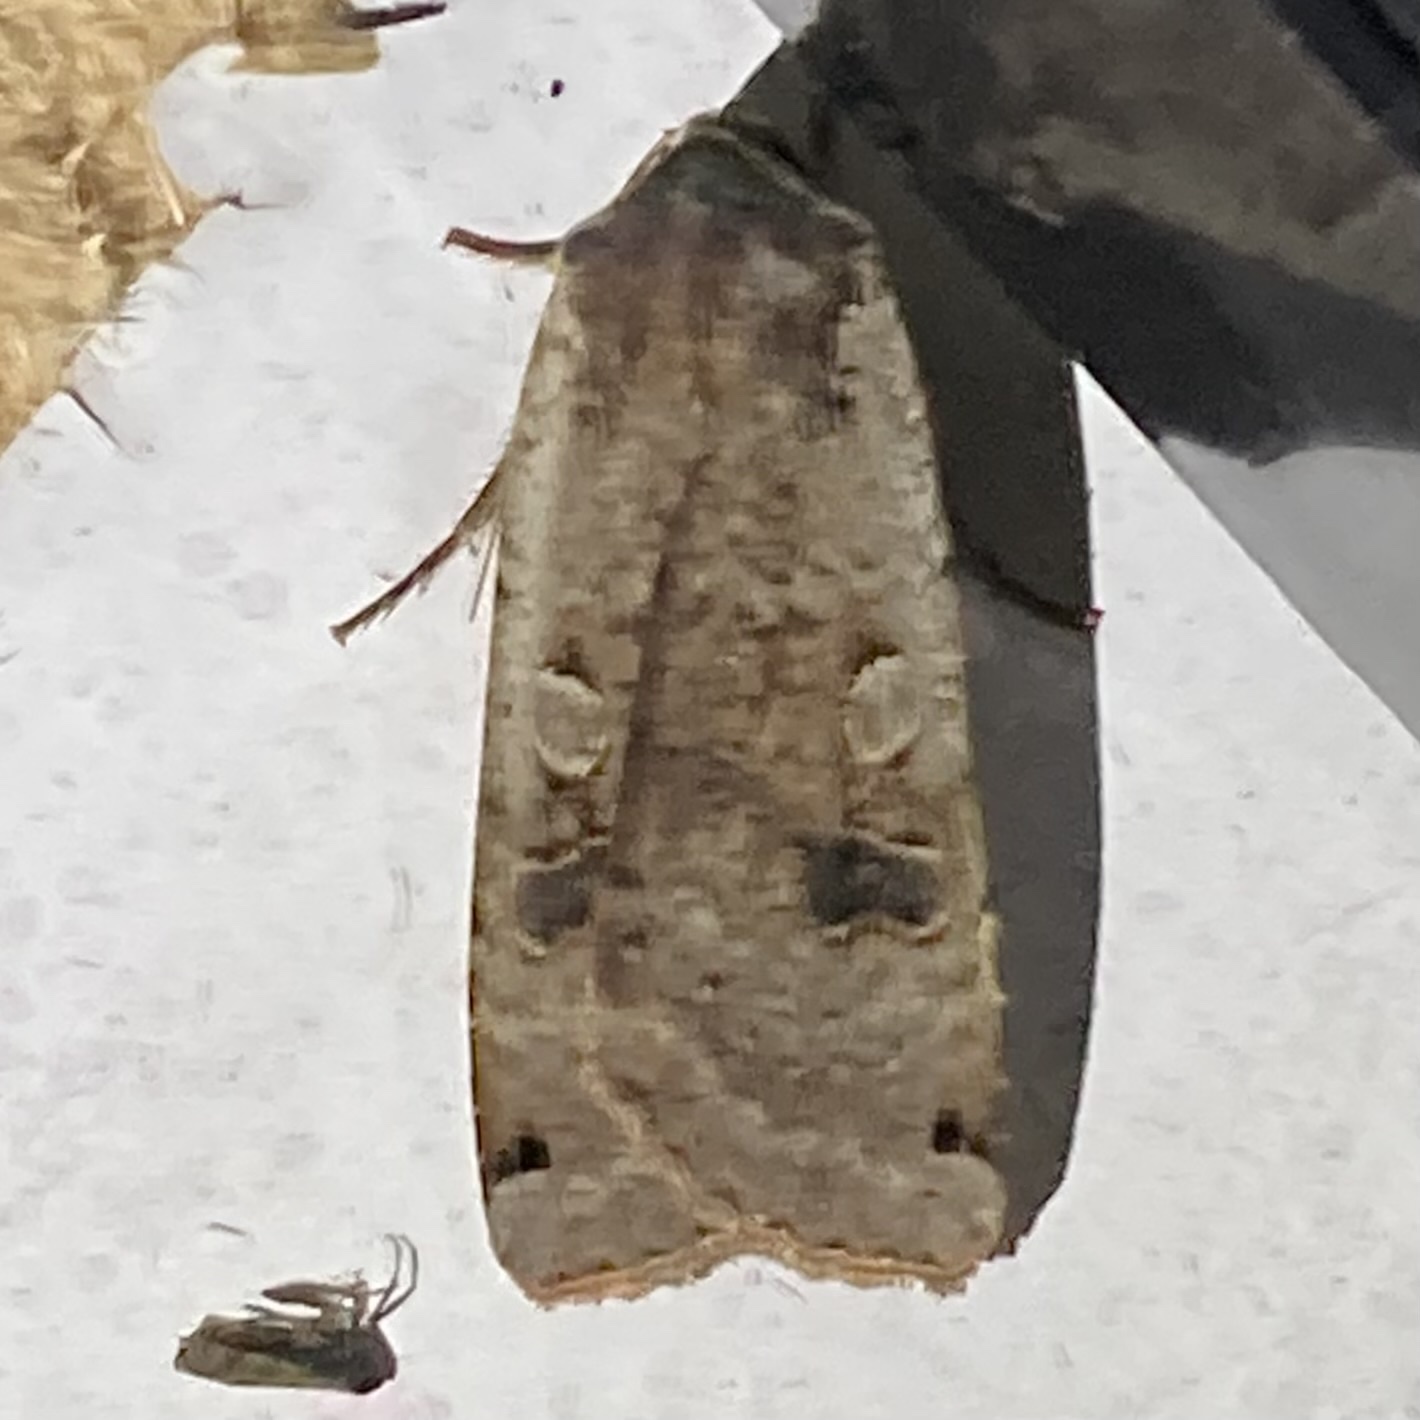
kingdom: Animalia
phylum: Arthropoda
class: Insecta
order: Lepidoptera
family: Noctuidae
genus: Noctua
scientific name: Noctua pronuba
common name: Large yellow underwing
